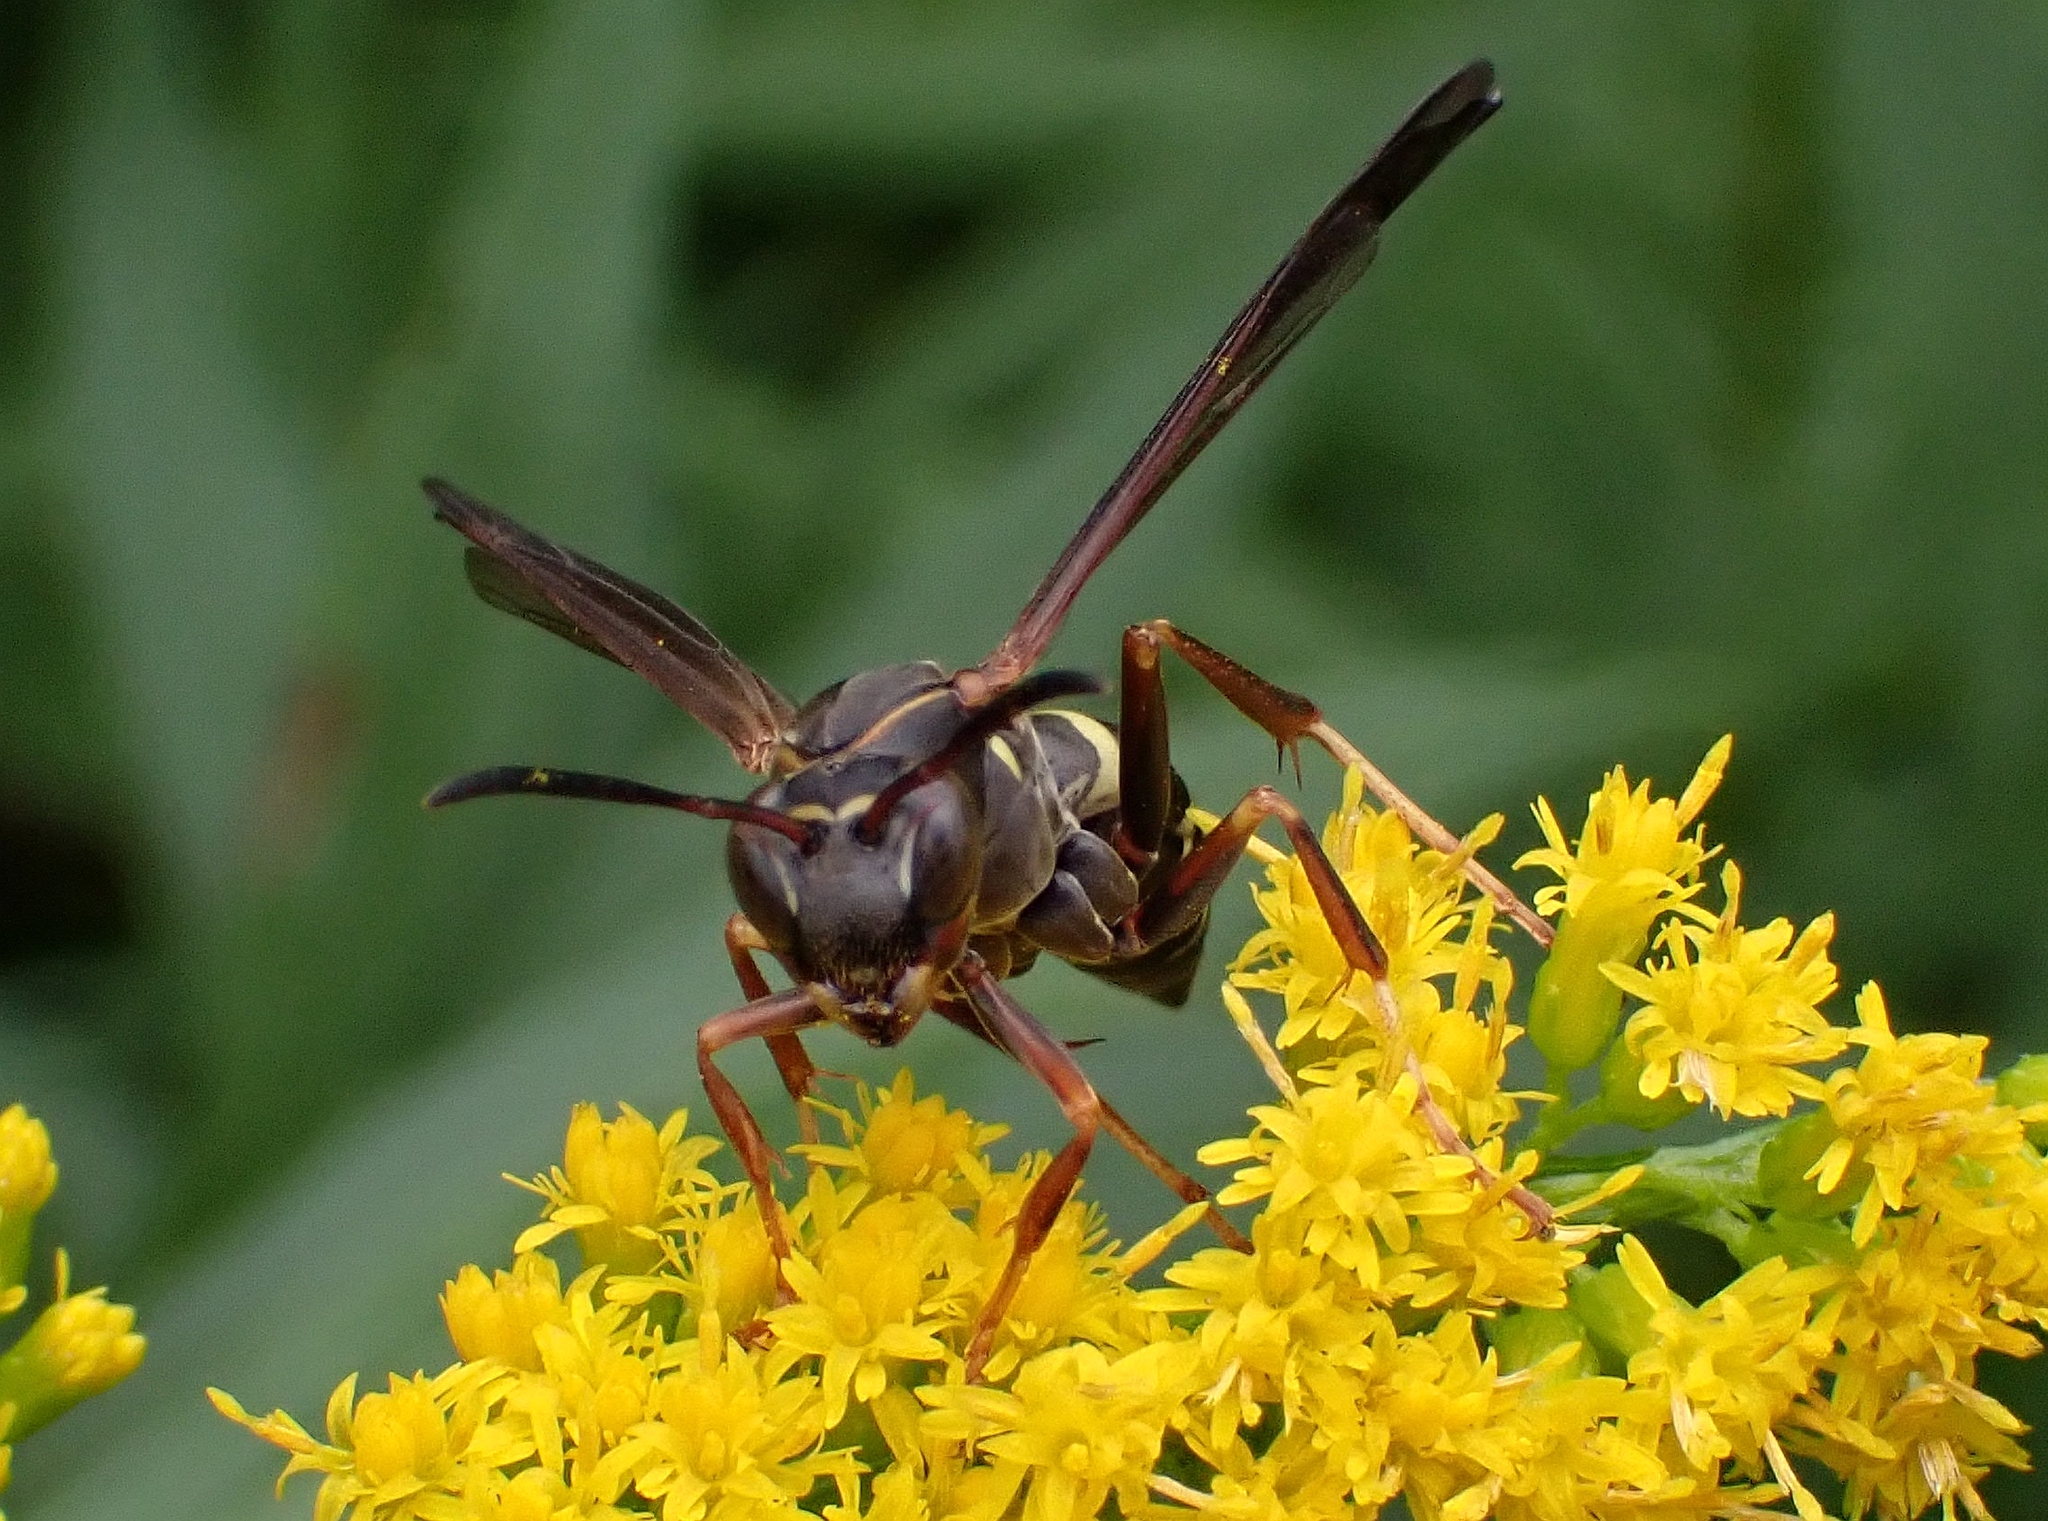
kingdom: Animalia
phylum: Arthropoda
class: Insecta
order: Hymenoptera
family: Eumenidae
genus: Polistes
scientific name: Polistes fuscatus
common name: Dark paper wasp
